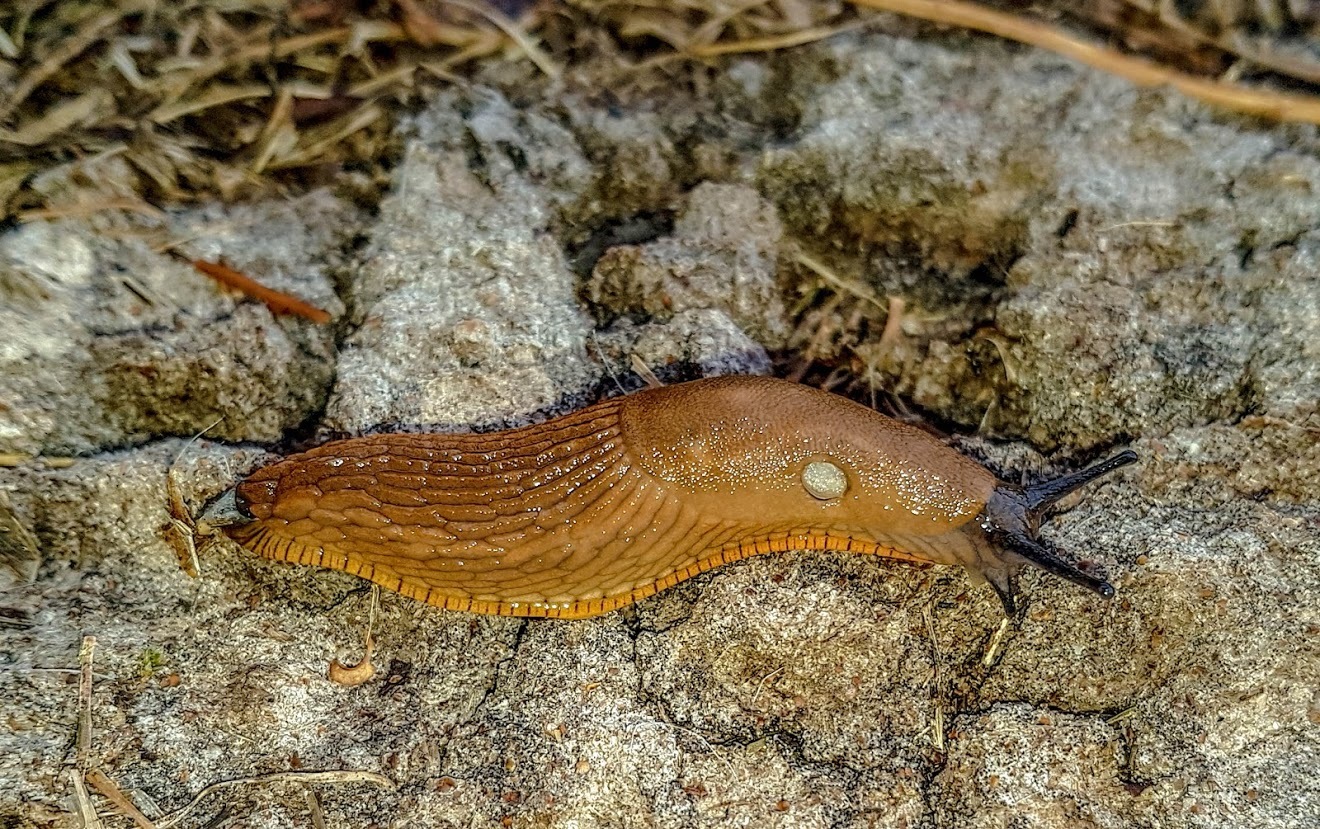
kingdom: Animalia
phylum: Mollusca
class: Gastropoda
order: Stylommatophora
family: Arionidae
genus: Arion
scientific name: Arion rufus
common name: Chocolate arion
